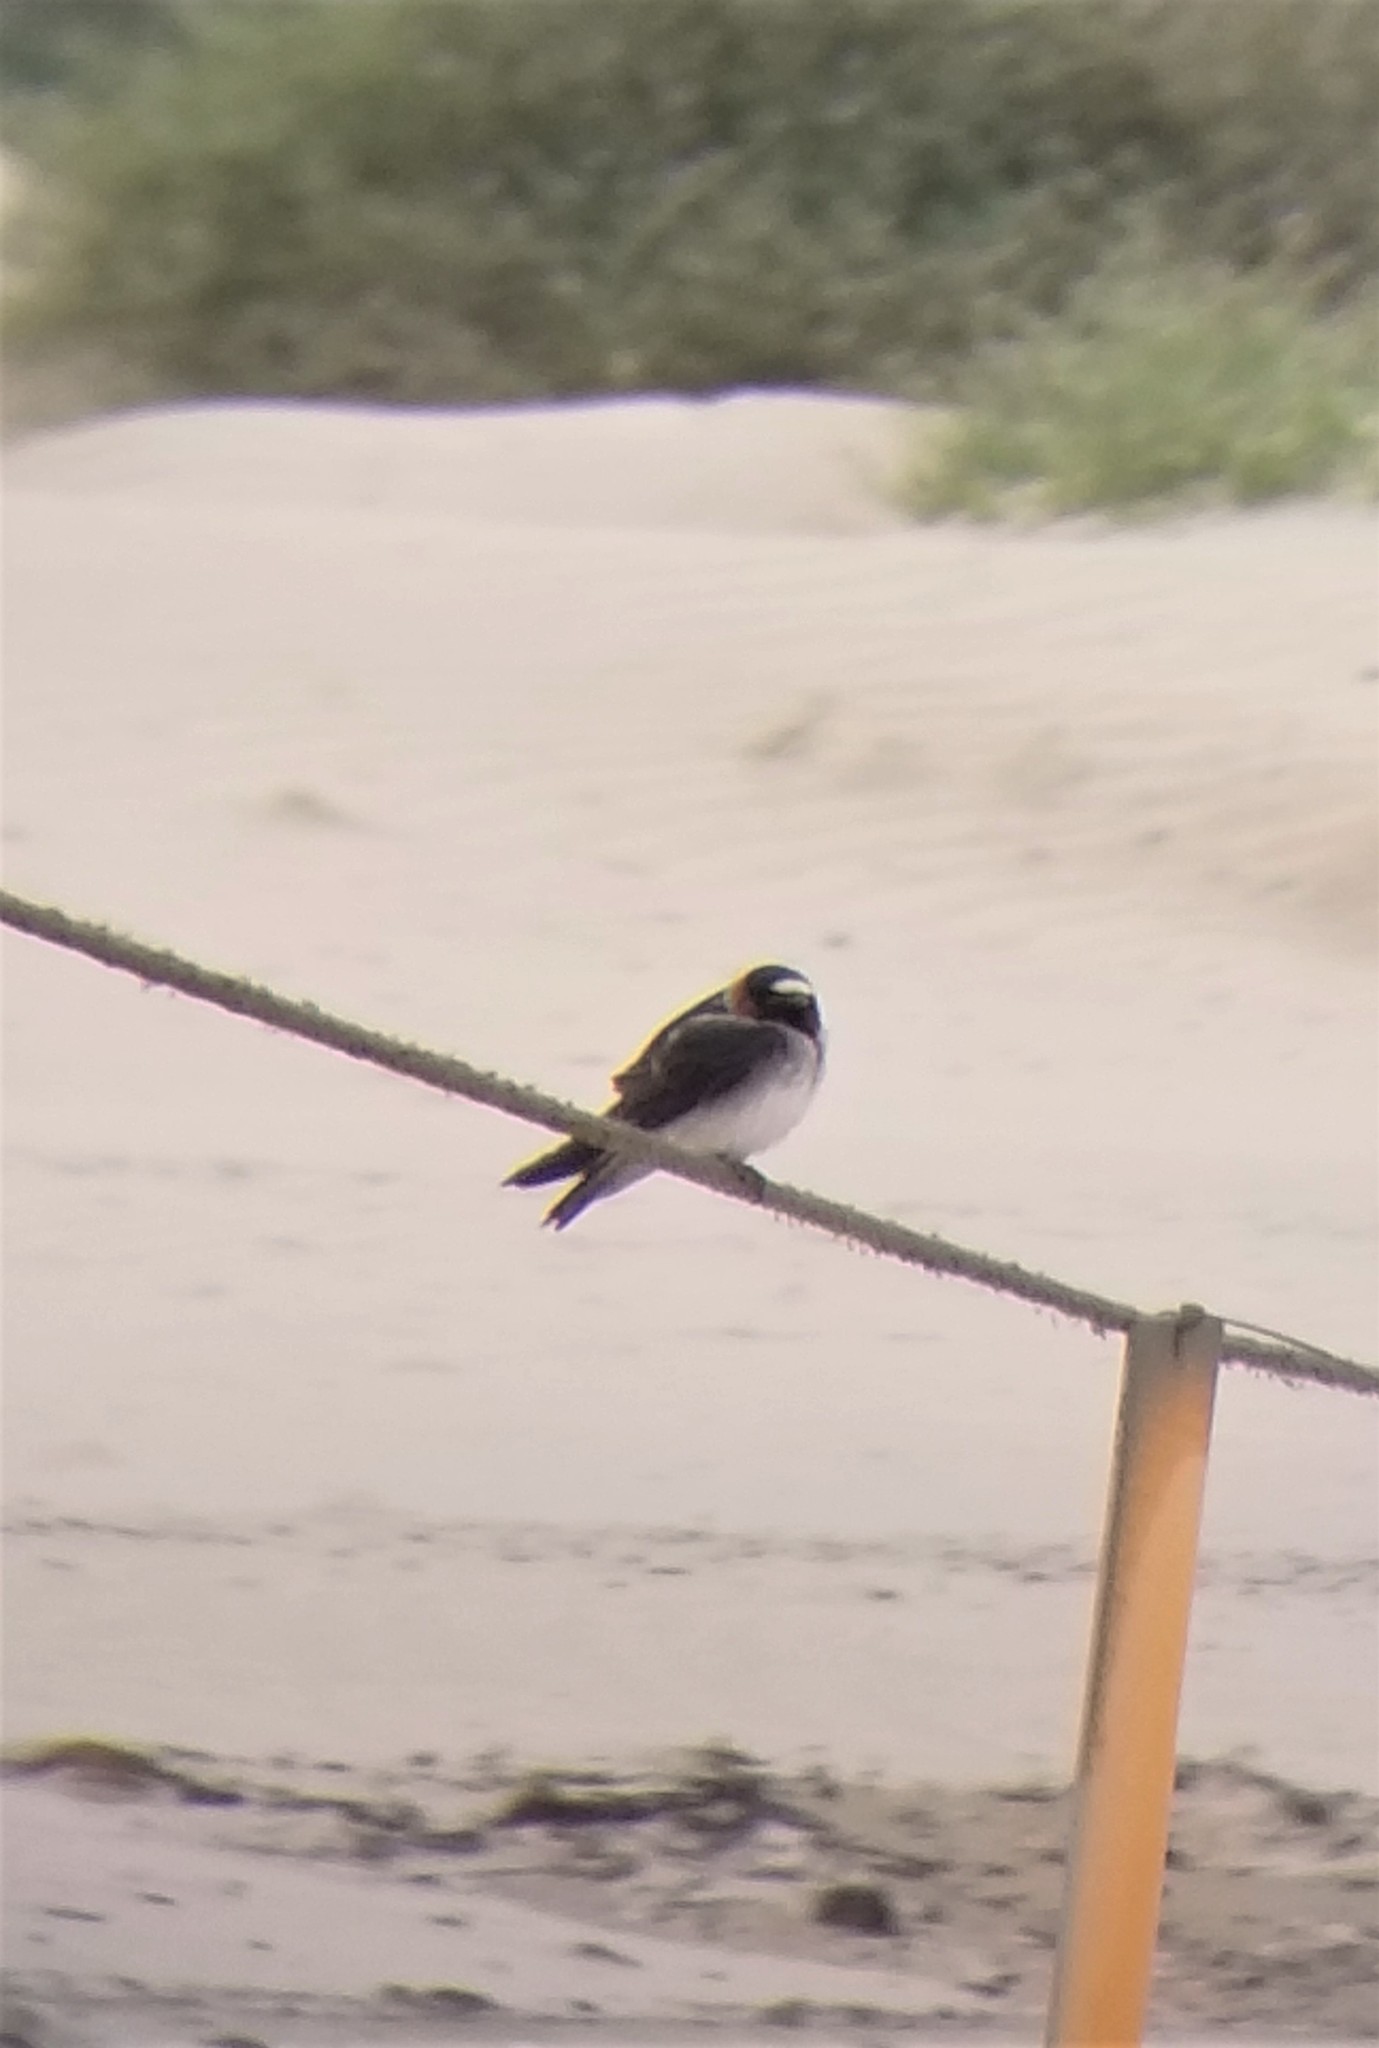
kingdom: Animalia
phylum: Chordata
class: Aves
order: Passeriformes
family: Hirundinidae
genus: Petrochelidon
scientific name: Petrochelidon pyrrhonota
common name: American cliff swallow
